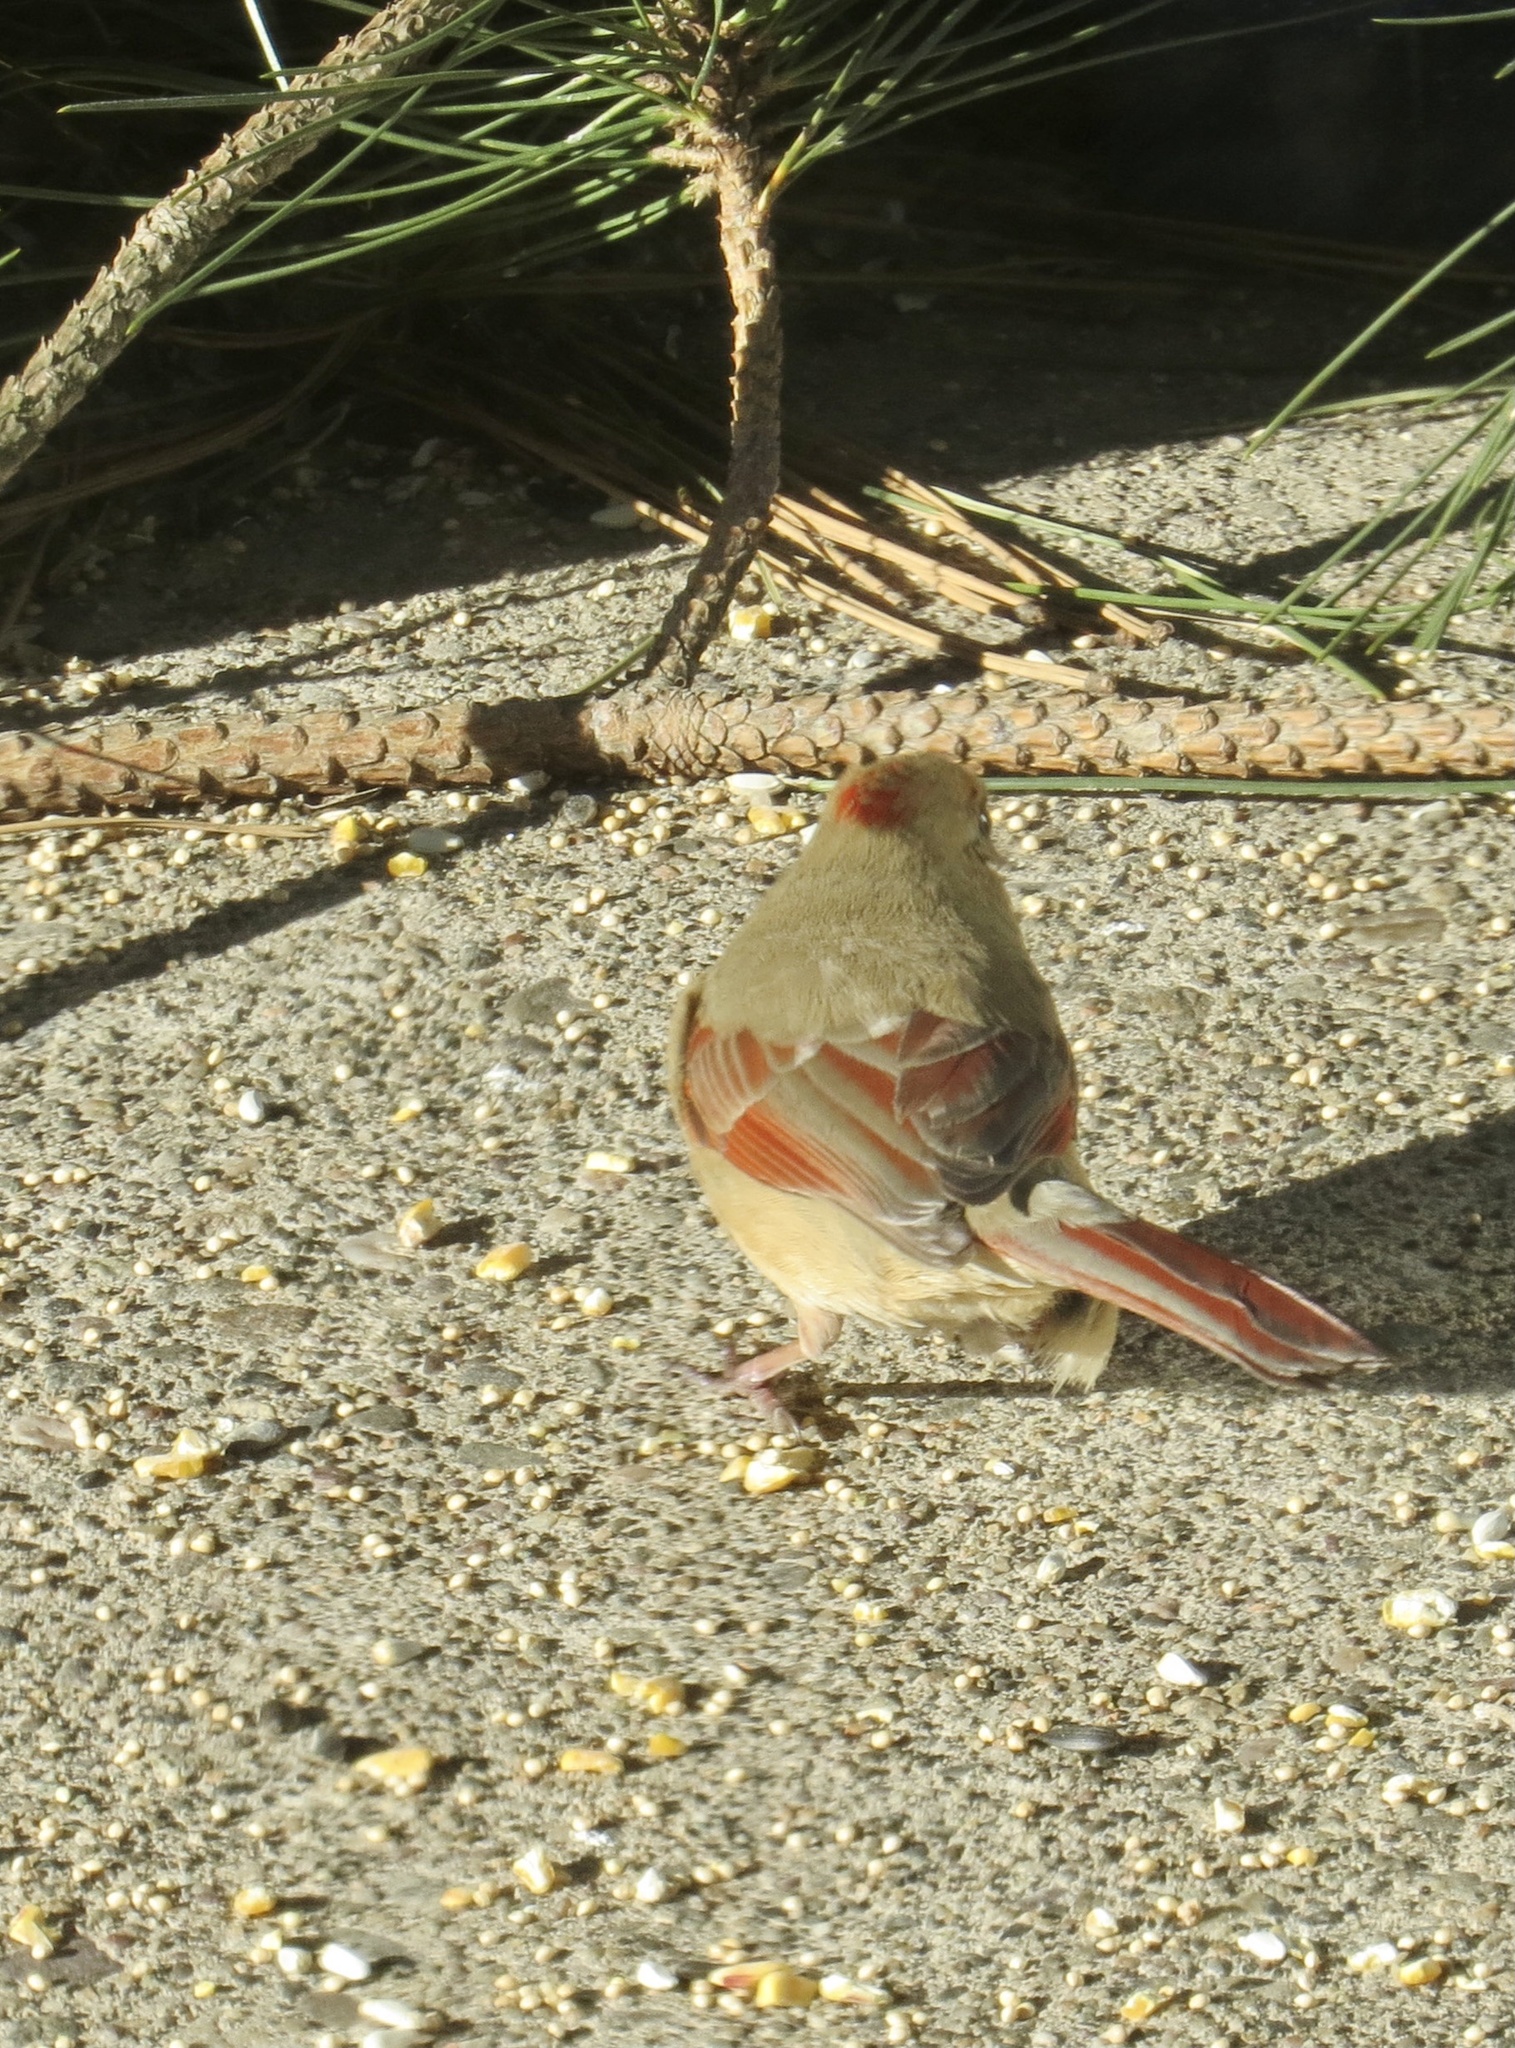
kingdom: Animalia
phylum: Chordata
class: Aves
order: Passeriformes
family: Cardinalidae
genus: Cardinalis
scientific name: Cardinalis cardinalis
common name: Northern cardinal
